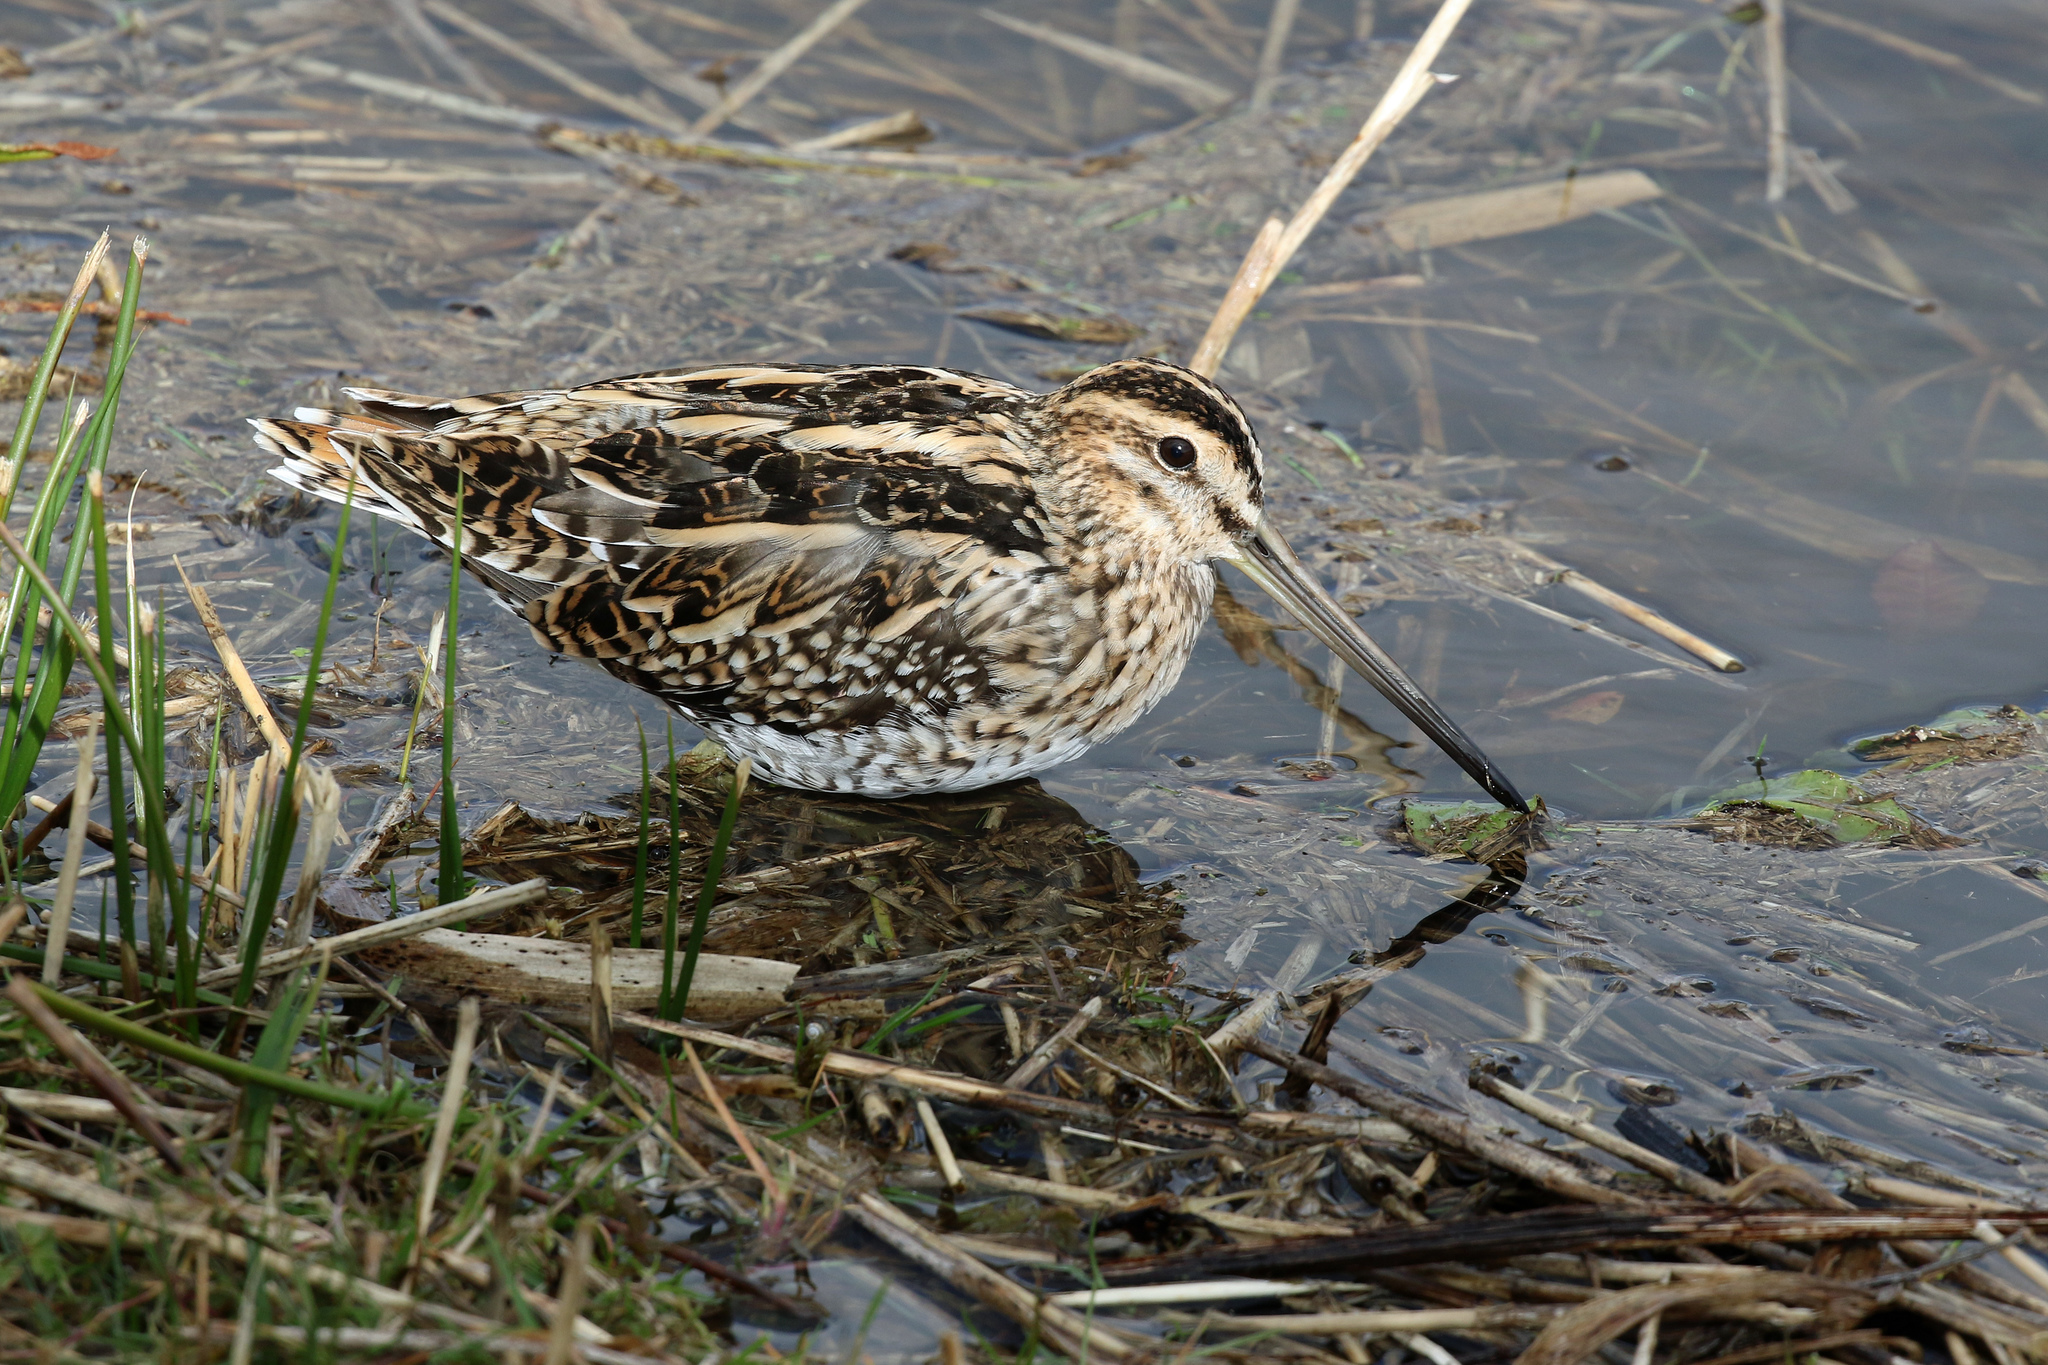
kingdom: Animalia
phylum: Chordata
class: Aves
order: Charadriiformes
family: Scolopacidae
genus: Gallinago
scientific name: Gallinago gallinago
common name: Common snipe
